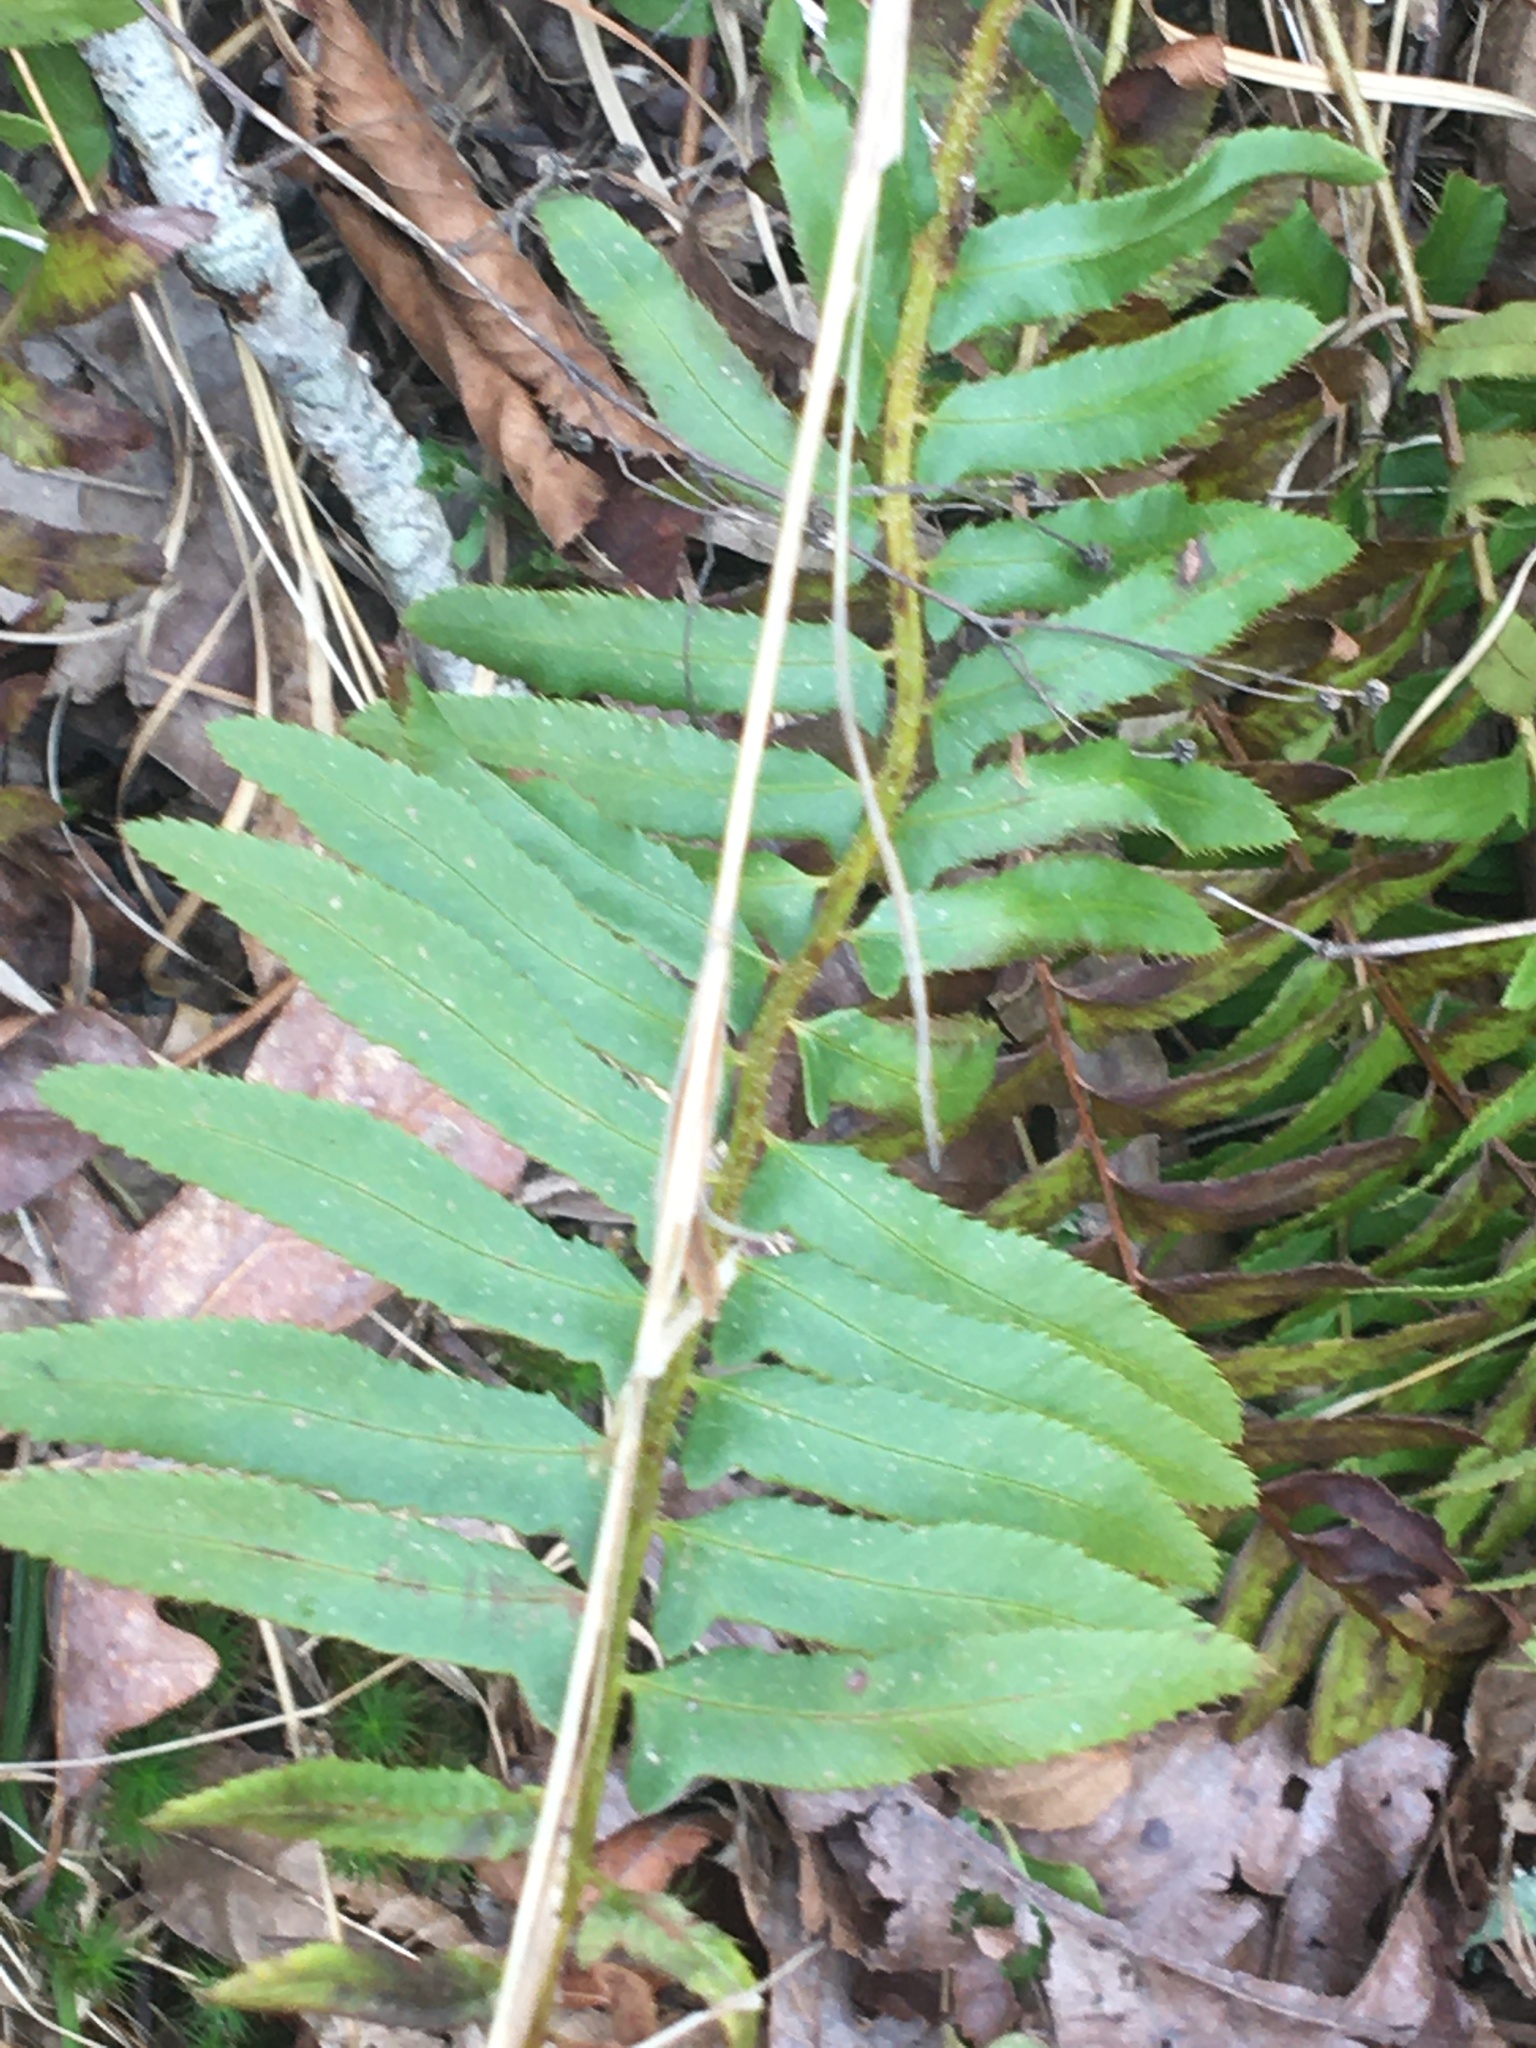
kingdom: Plantae
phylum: Tracheophyta
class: Polypodiopsida
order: Polypodiales
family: Dryopteridaceae
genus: Polystichum
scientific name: Polystichum acrostichoides
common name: Christmas fern
